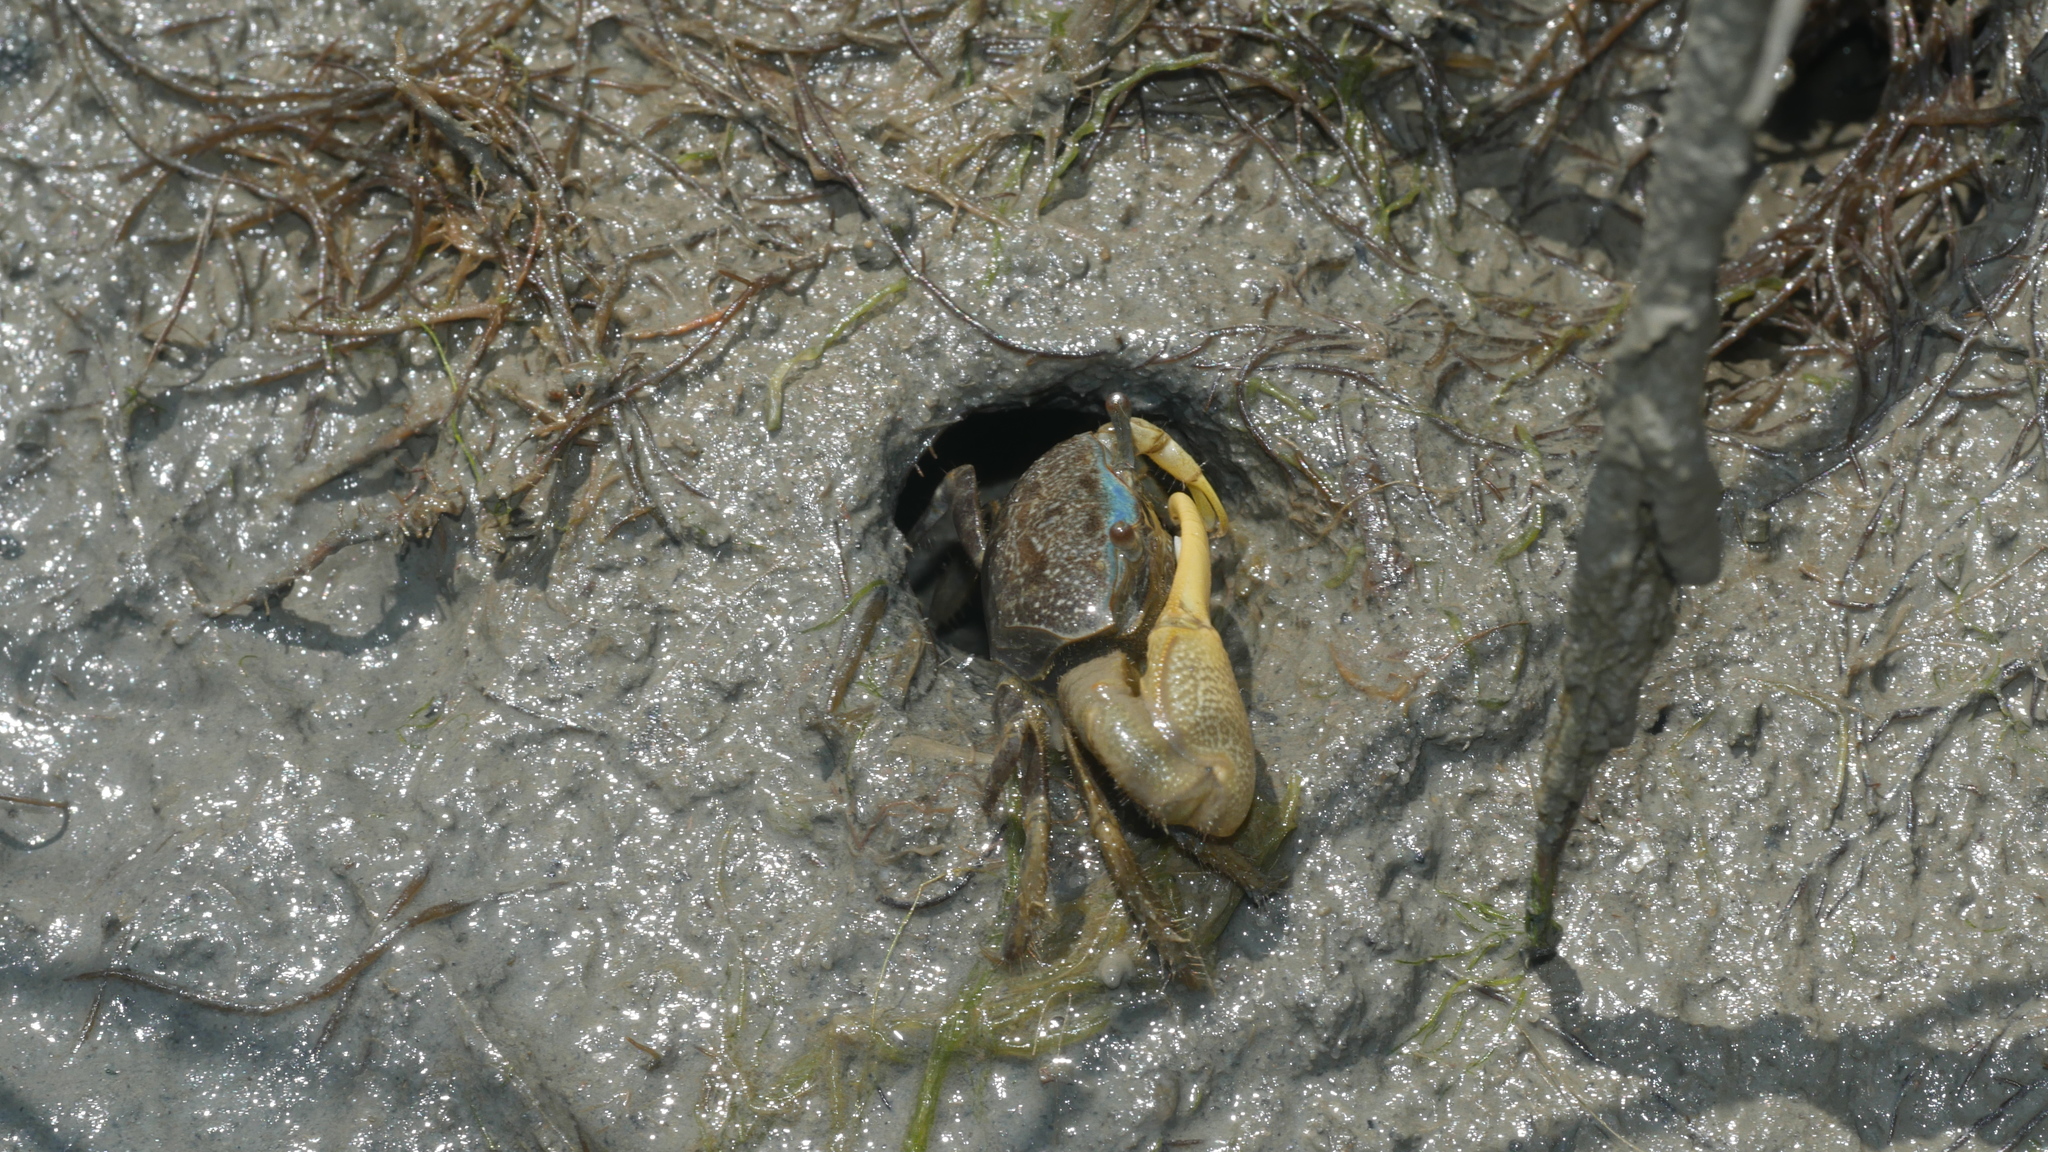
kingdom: Animalia
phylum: Arthropoda
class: Malacostraca
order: Decapoda
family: Ocypodidae
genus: Minuca
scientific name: Minuca pugnax
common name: Mud fiddler crab
